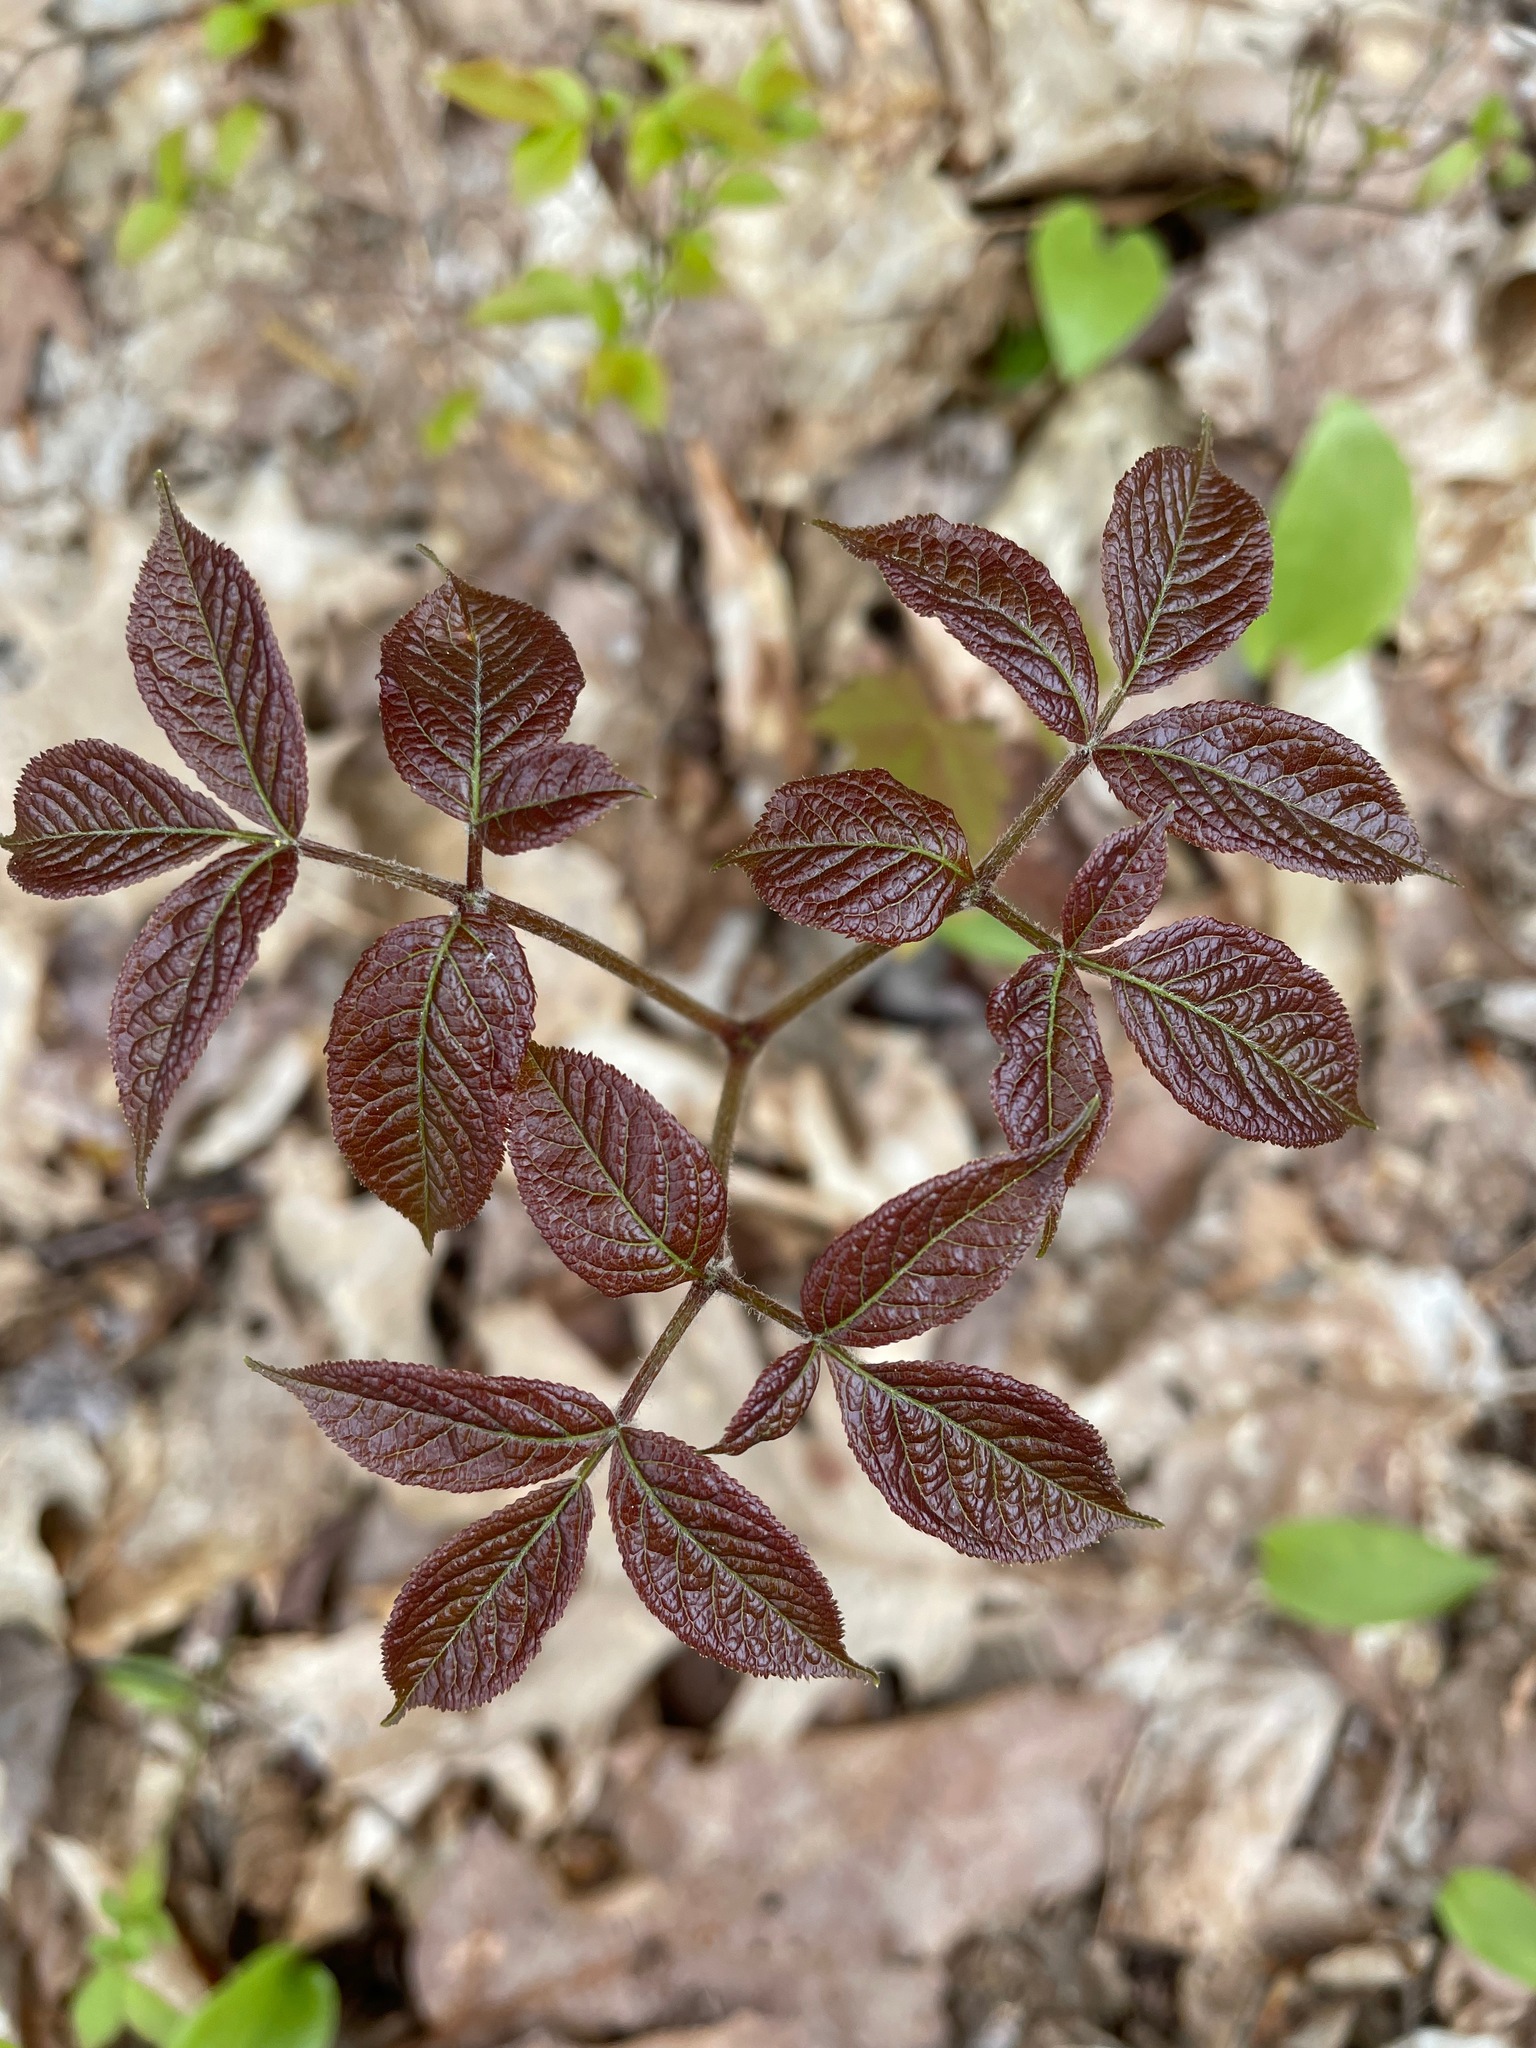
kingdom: Plantae
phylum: Tracheophyta
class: Magnoliopsida
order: Apiales
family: Araliaceae
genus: Aralia
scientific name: Aralia nudicaulis
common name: Wild sarsaparilla
